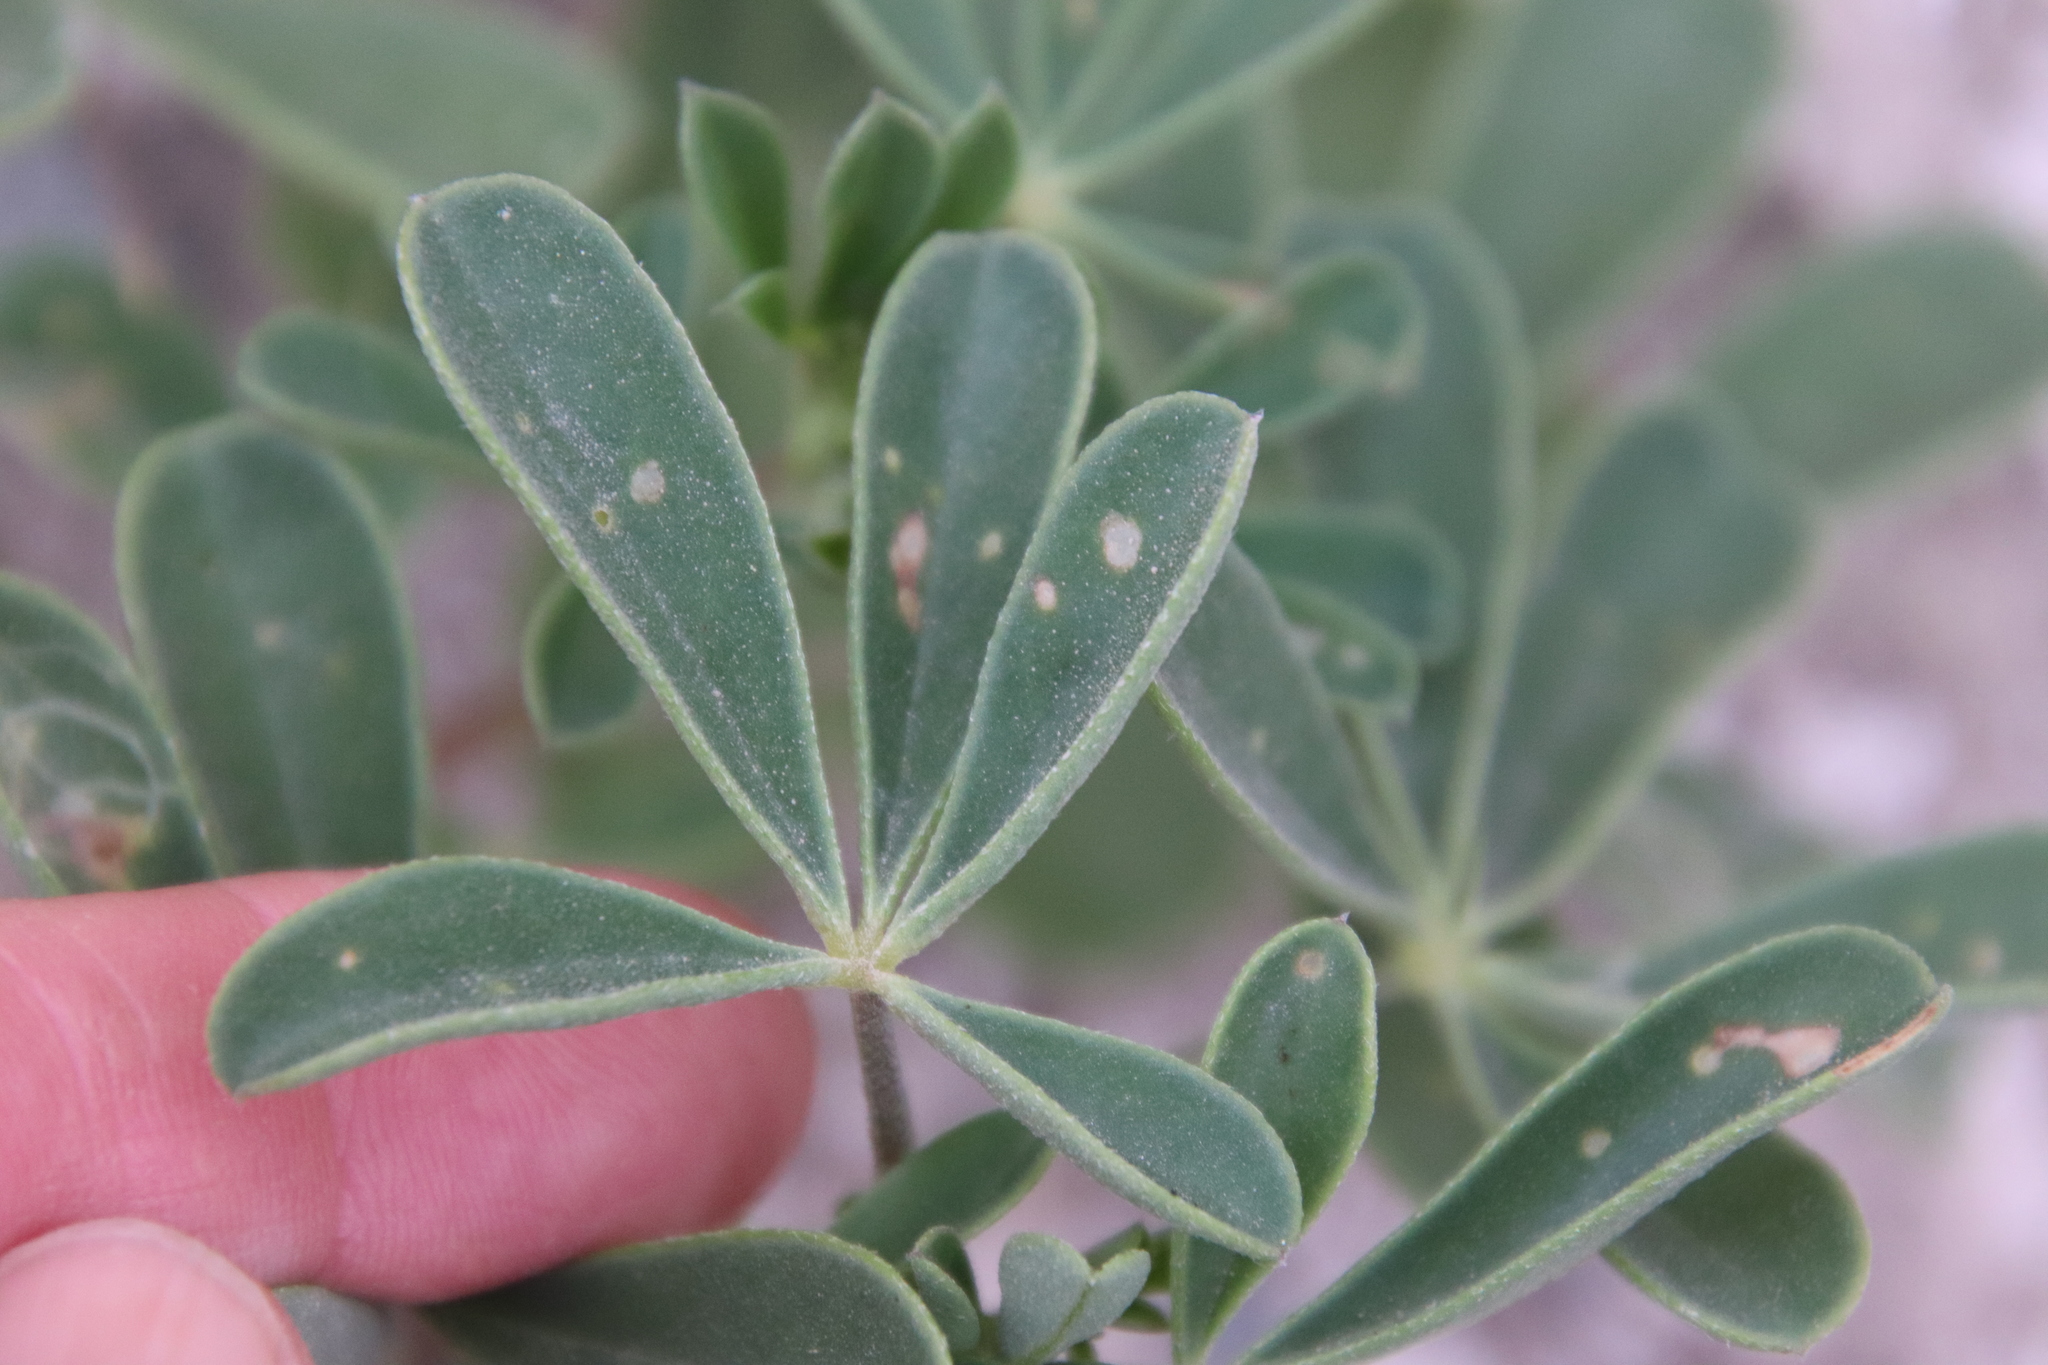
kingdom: Plantae
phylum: Tracheophyta
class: Magnoliopsida
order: Fabales
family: Fabaceae
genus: Lupinus
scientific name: Lupinus succulentus
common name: Arroyo lupine
